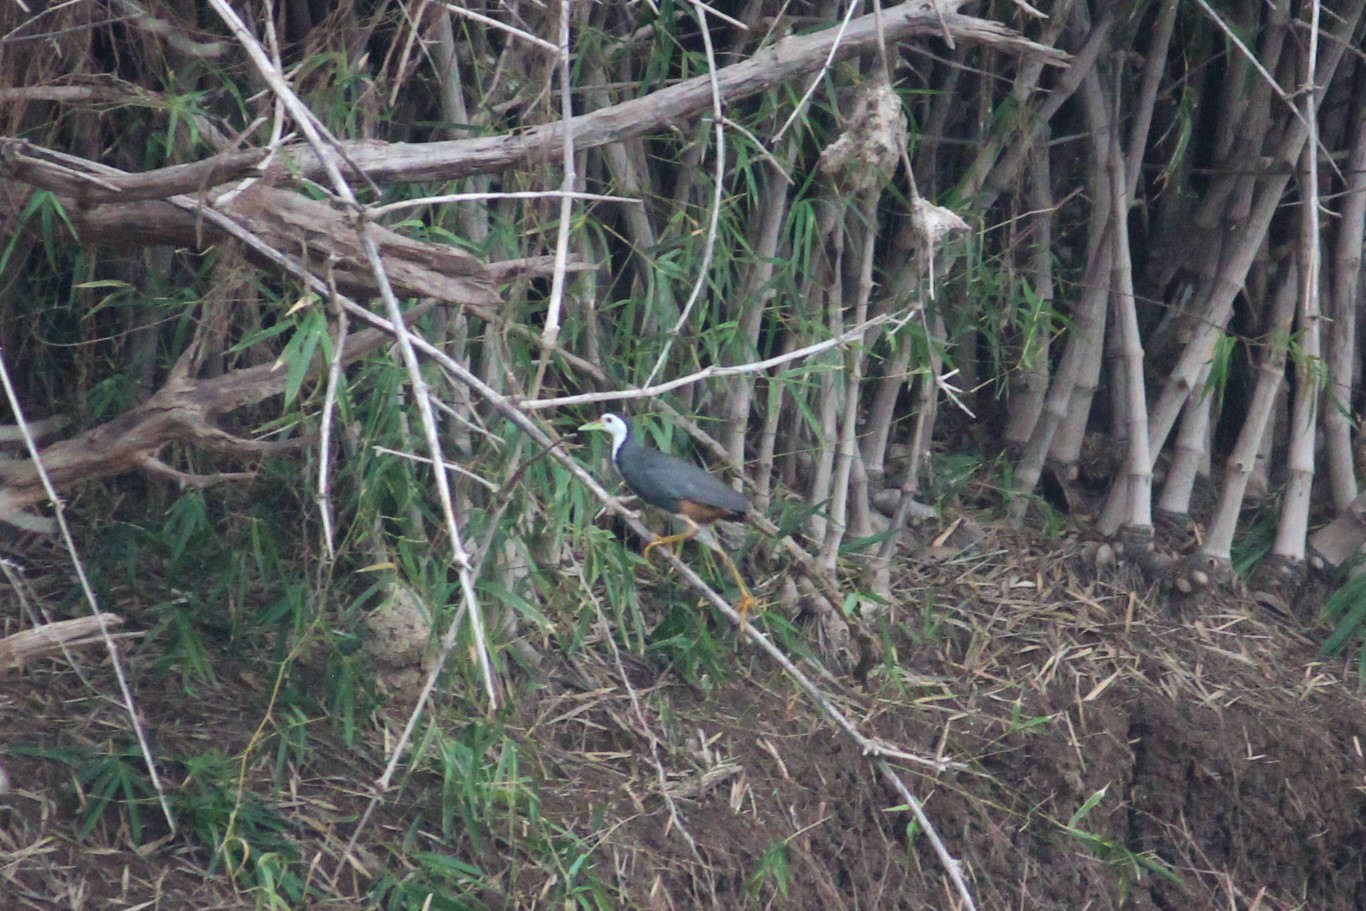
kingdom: Animalia
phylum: Chordata
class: Aves
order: Gruiformes
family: Rallidae
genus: Amaurornis
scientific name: Amaurornis phoenicurus
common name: White-breasted waterhen
